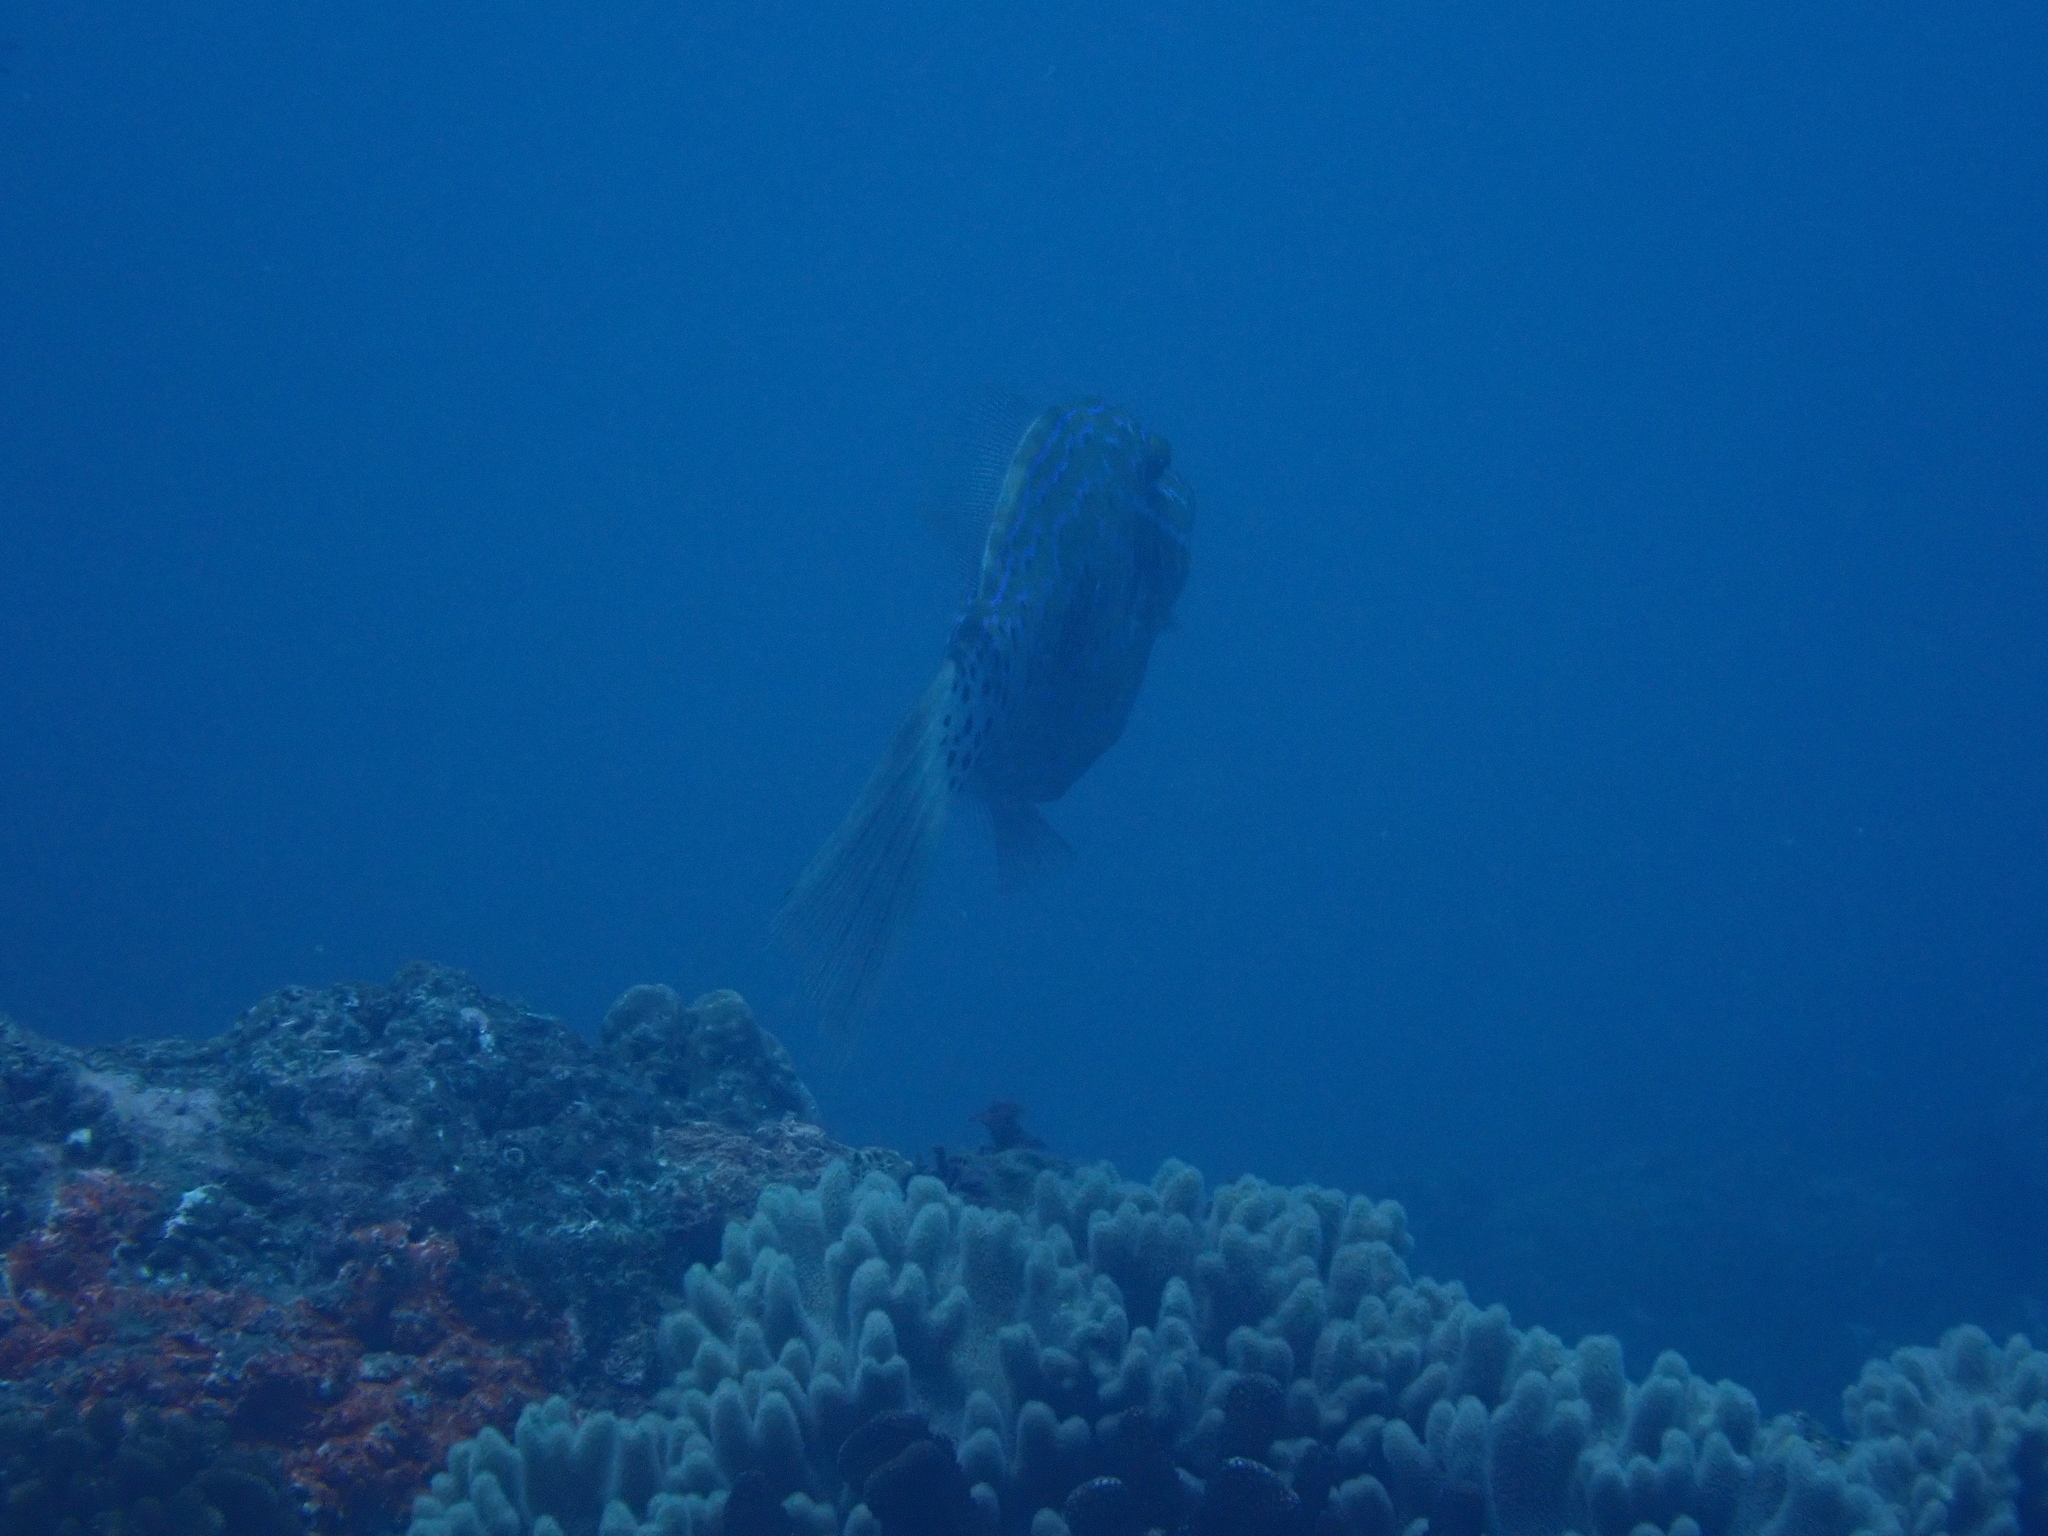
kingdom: Animalia
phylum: Chordata
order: Tetraodontiformes
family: Monacanthidae
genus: Aluterus
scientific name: Aluterus scriptus
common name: Scribbled leatherjacket filefish
